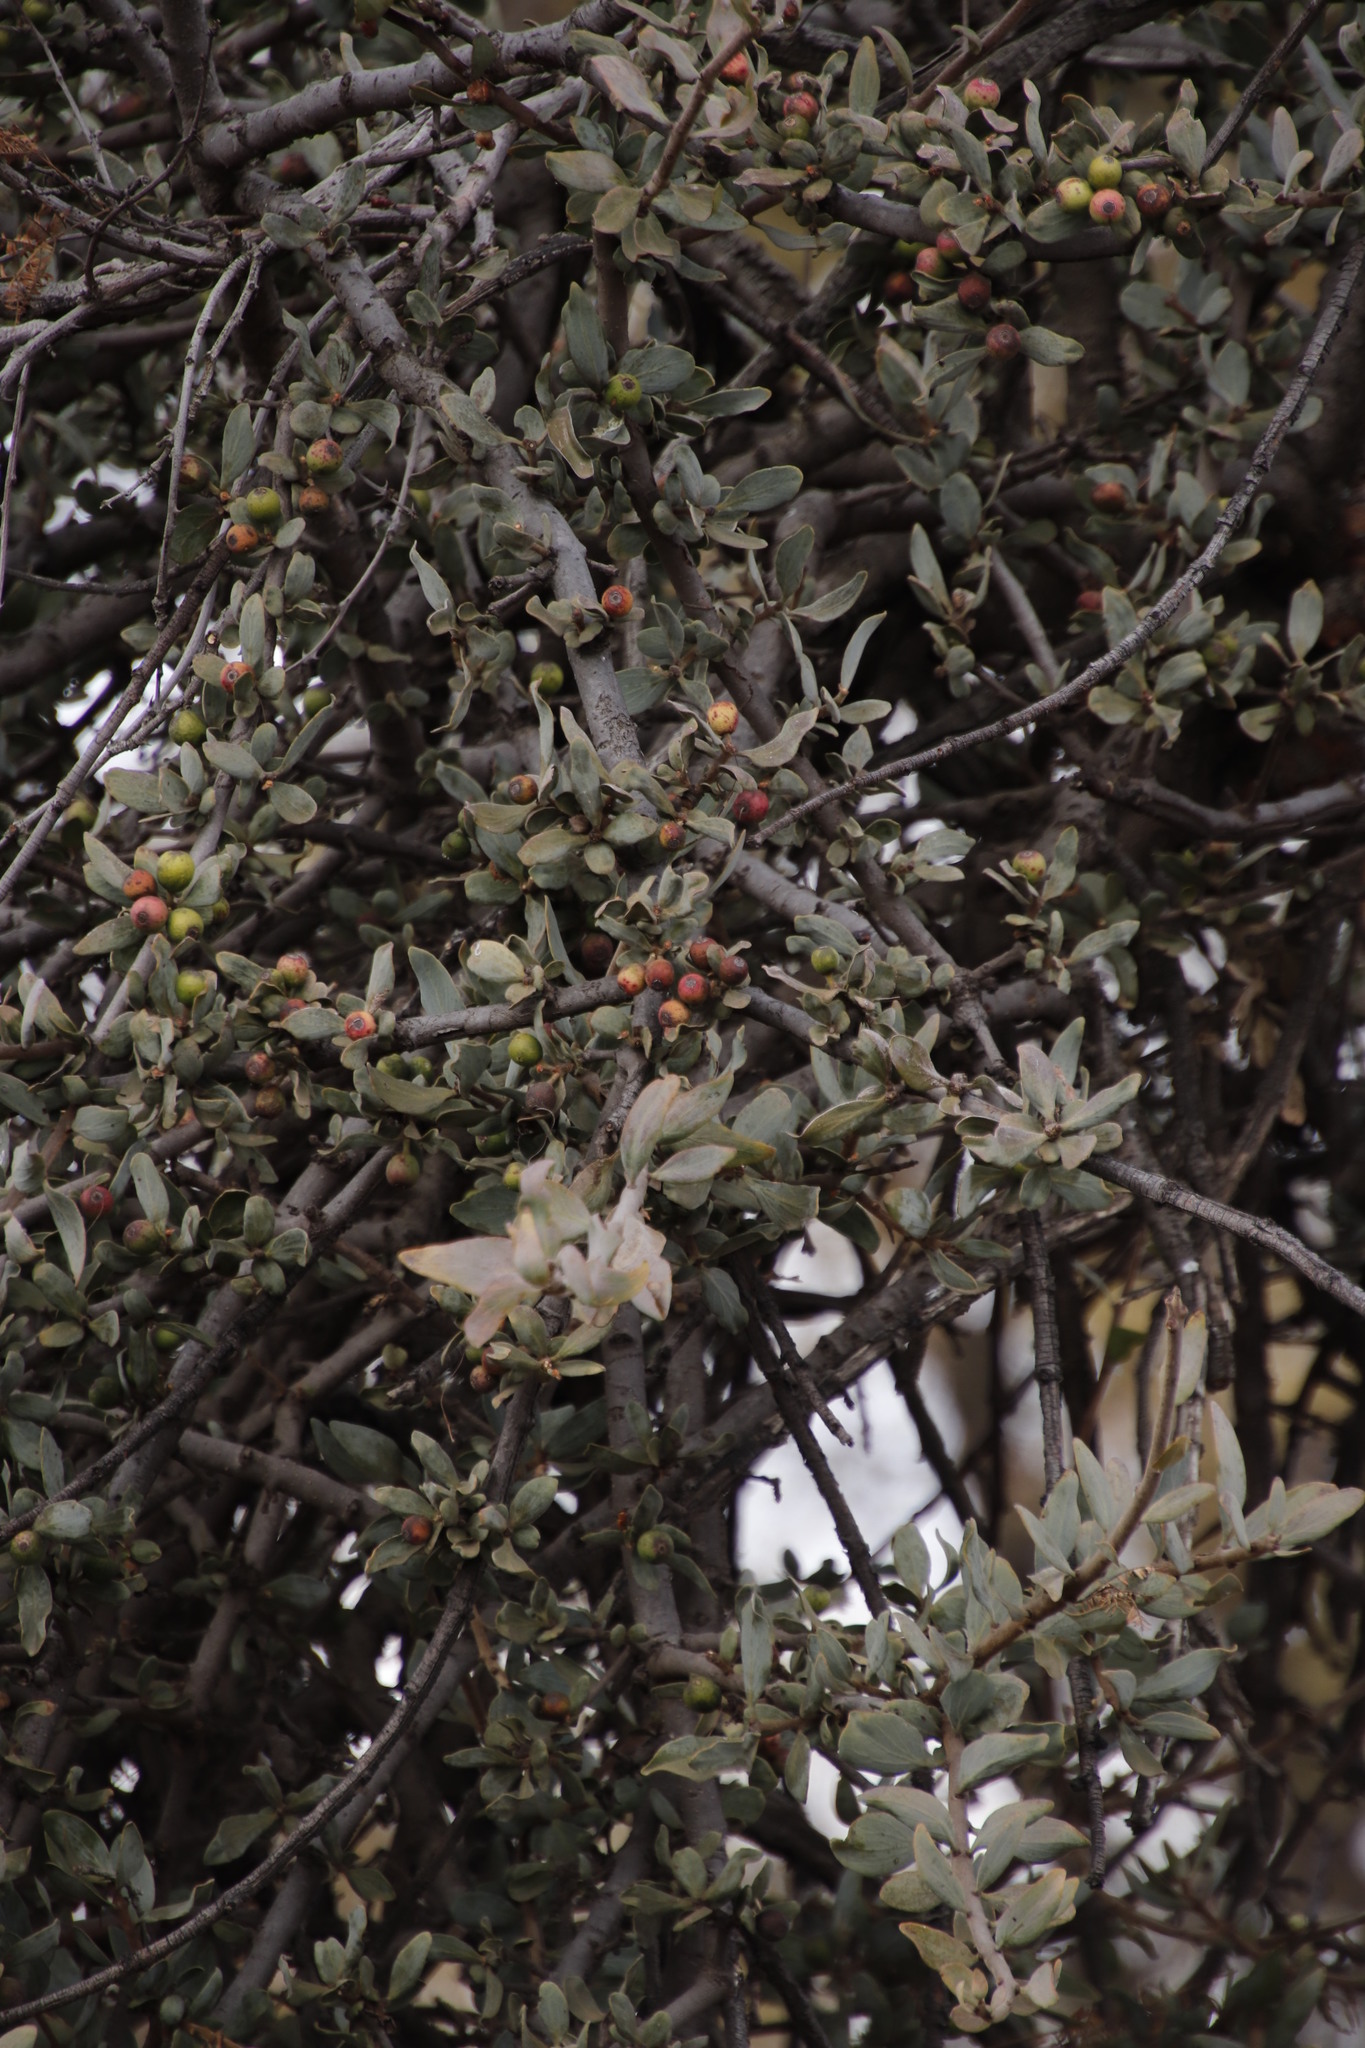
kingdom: Plantae
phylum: Tracheophyta
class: Magnoliopsida
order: Santalales
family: Loranthaceae
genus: Agelanthus
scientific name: Agelanthus natalitius
